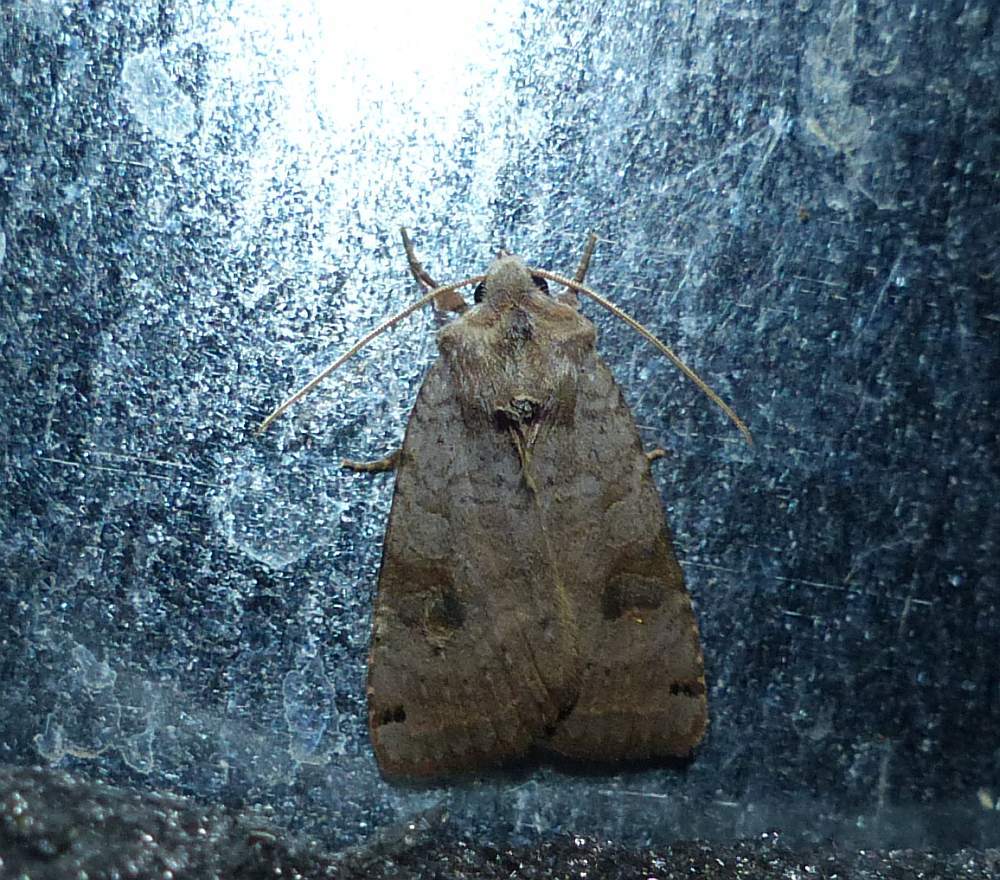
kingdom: Animalia
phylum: Arthropoda
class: Insecta
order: Lepidoptera
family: Noctuidae
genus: Xestia
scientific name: Xestia smithii
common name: Smith's dart
